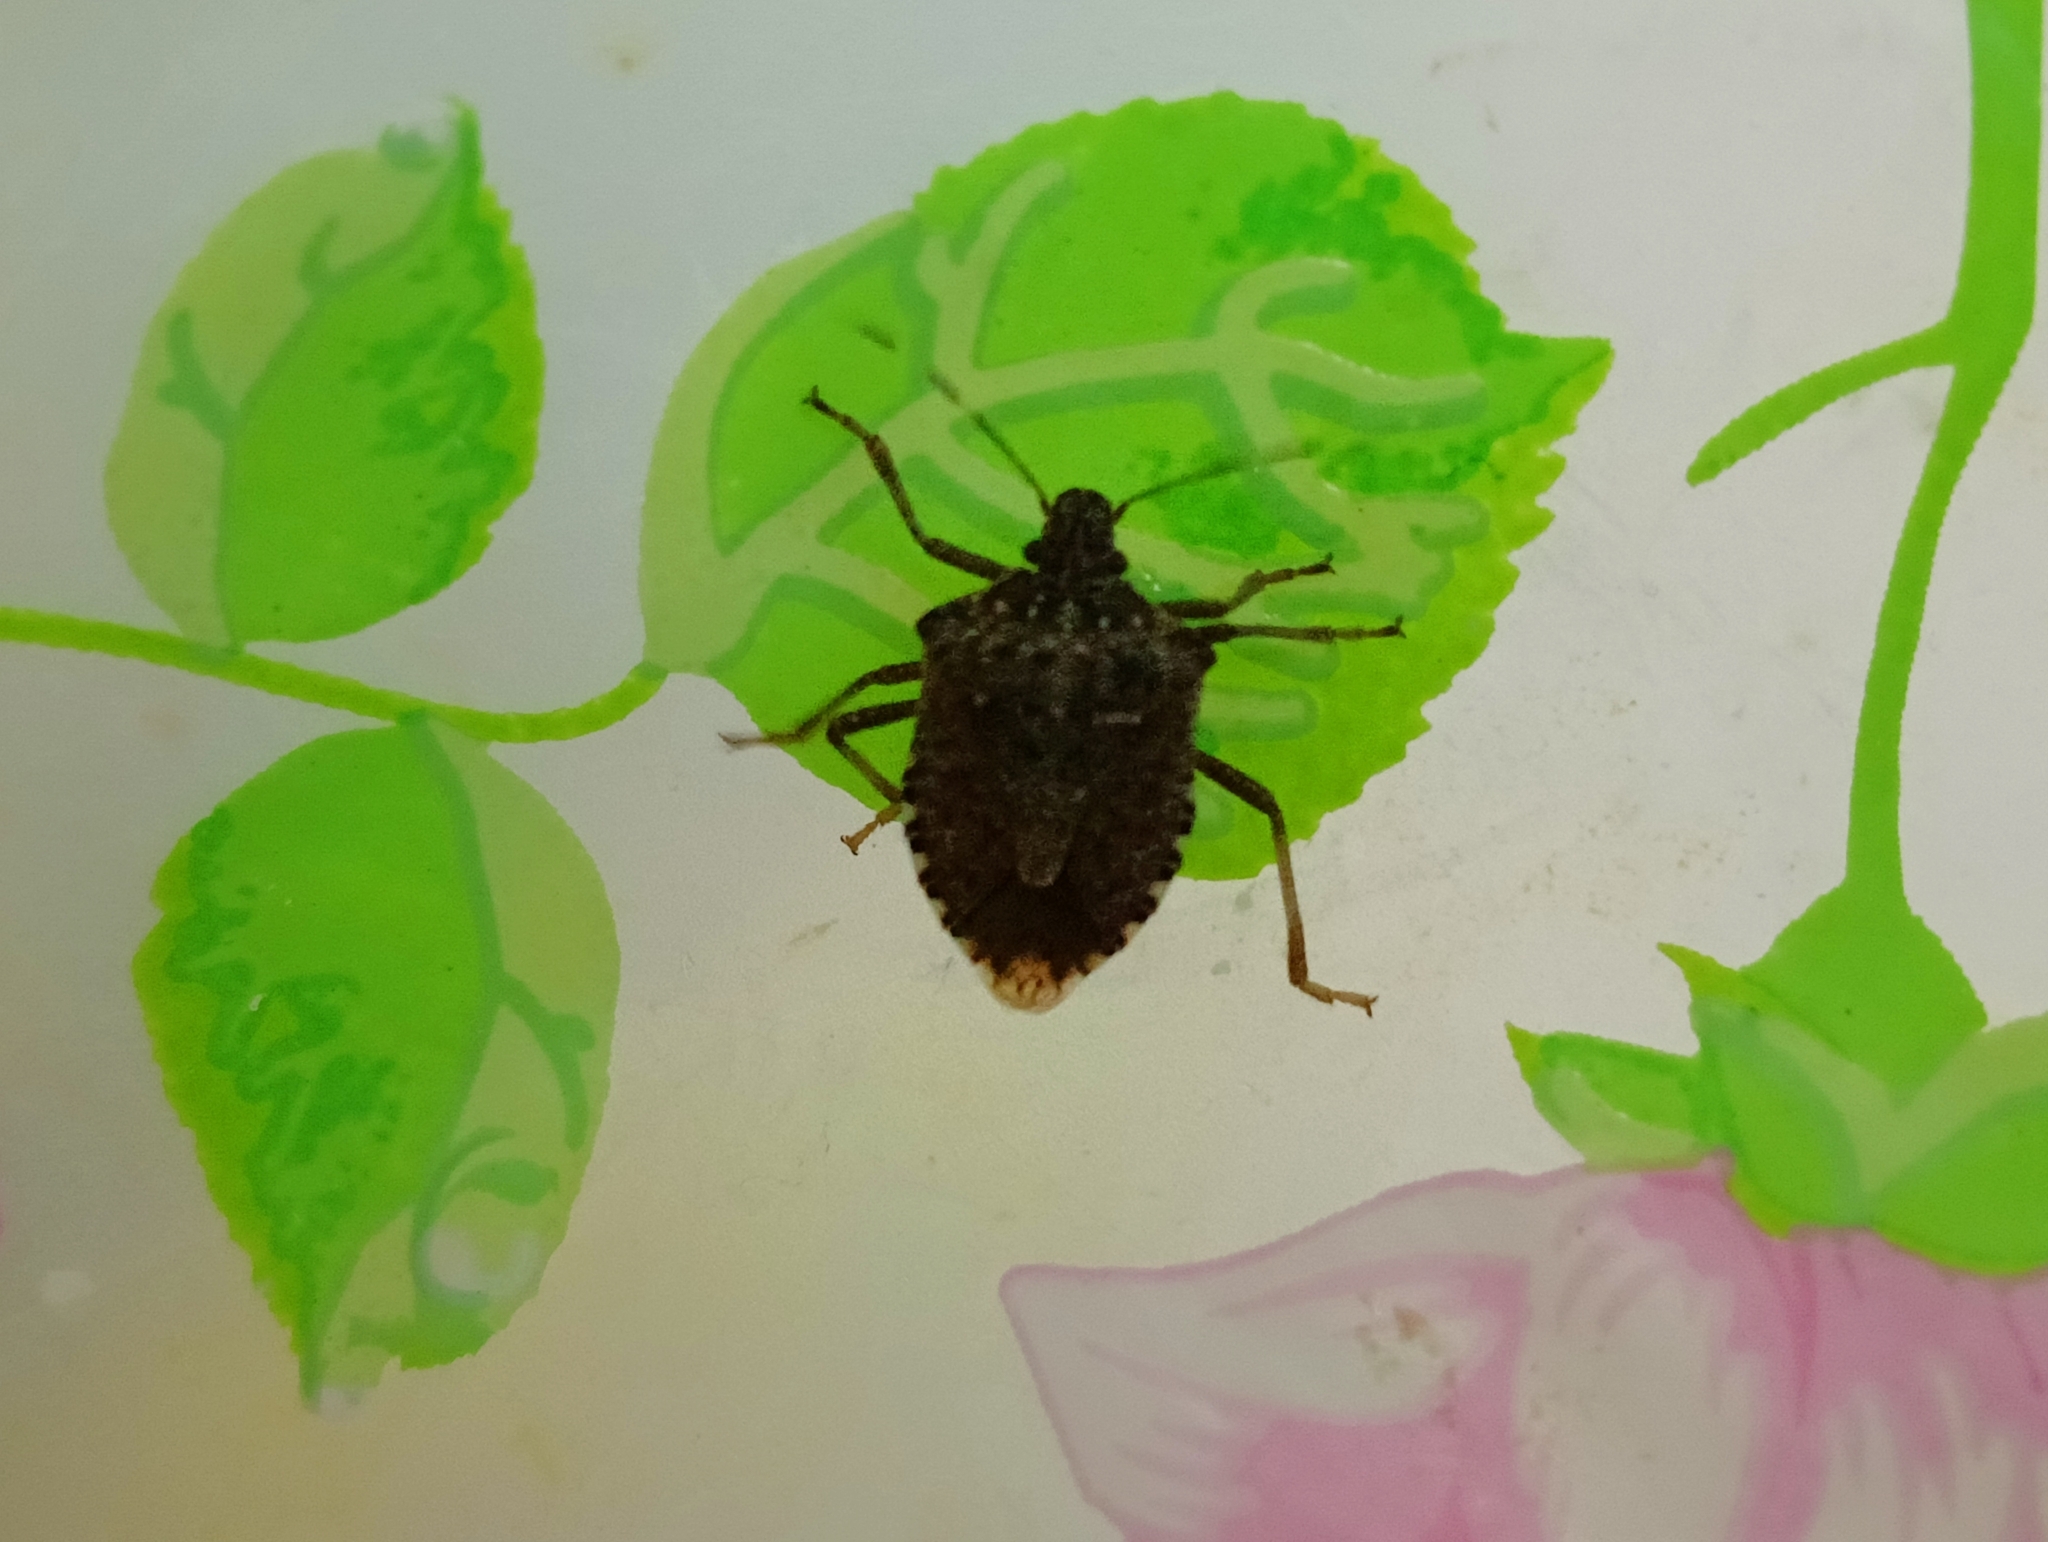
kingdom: Animalia
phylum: Arthropoda
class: Insecta
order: Hemiptera
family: Pentatomidae
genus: Halyomorpha
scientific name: Halyomorpha halys
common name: Brown marmorated stink bug
